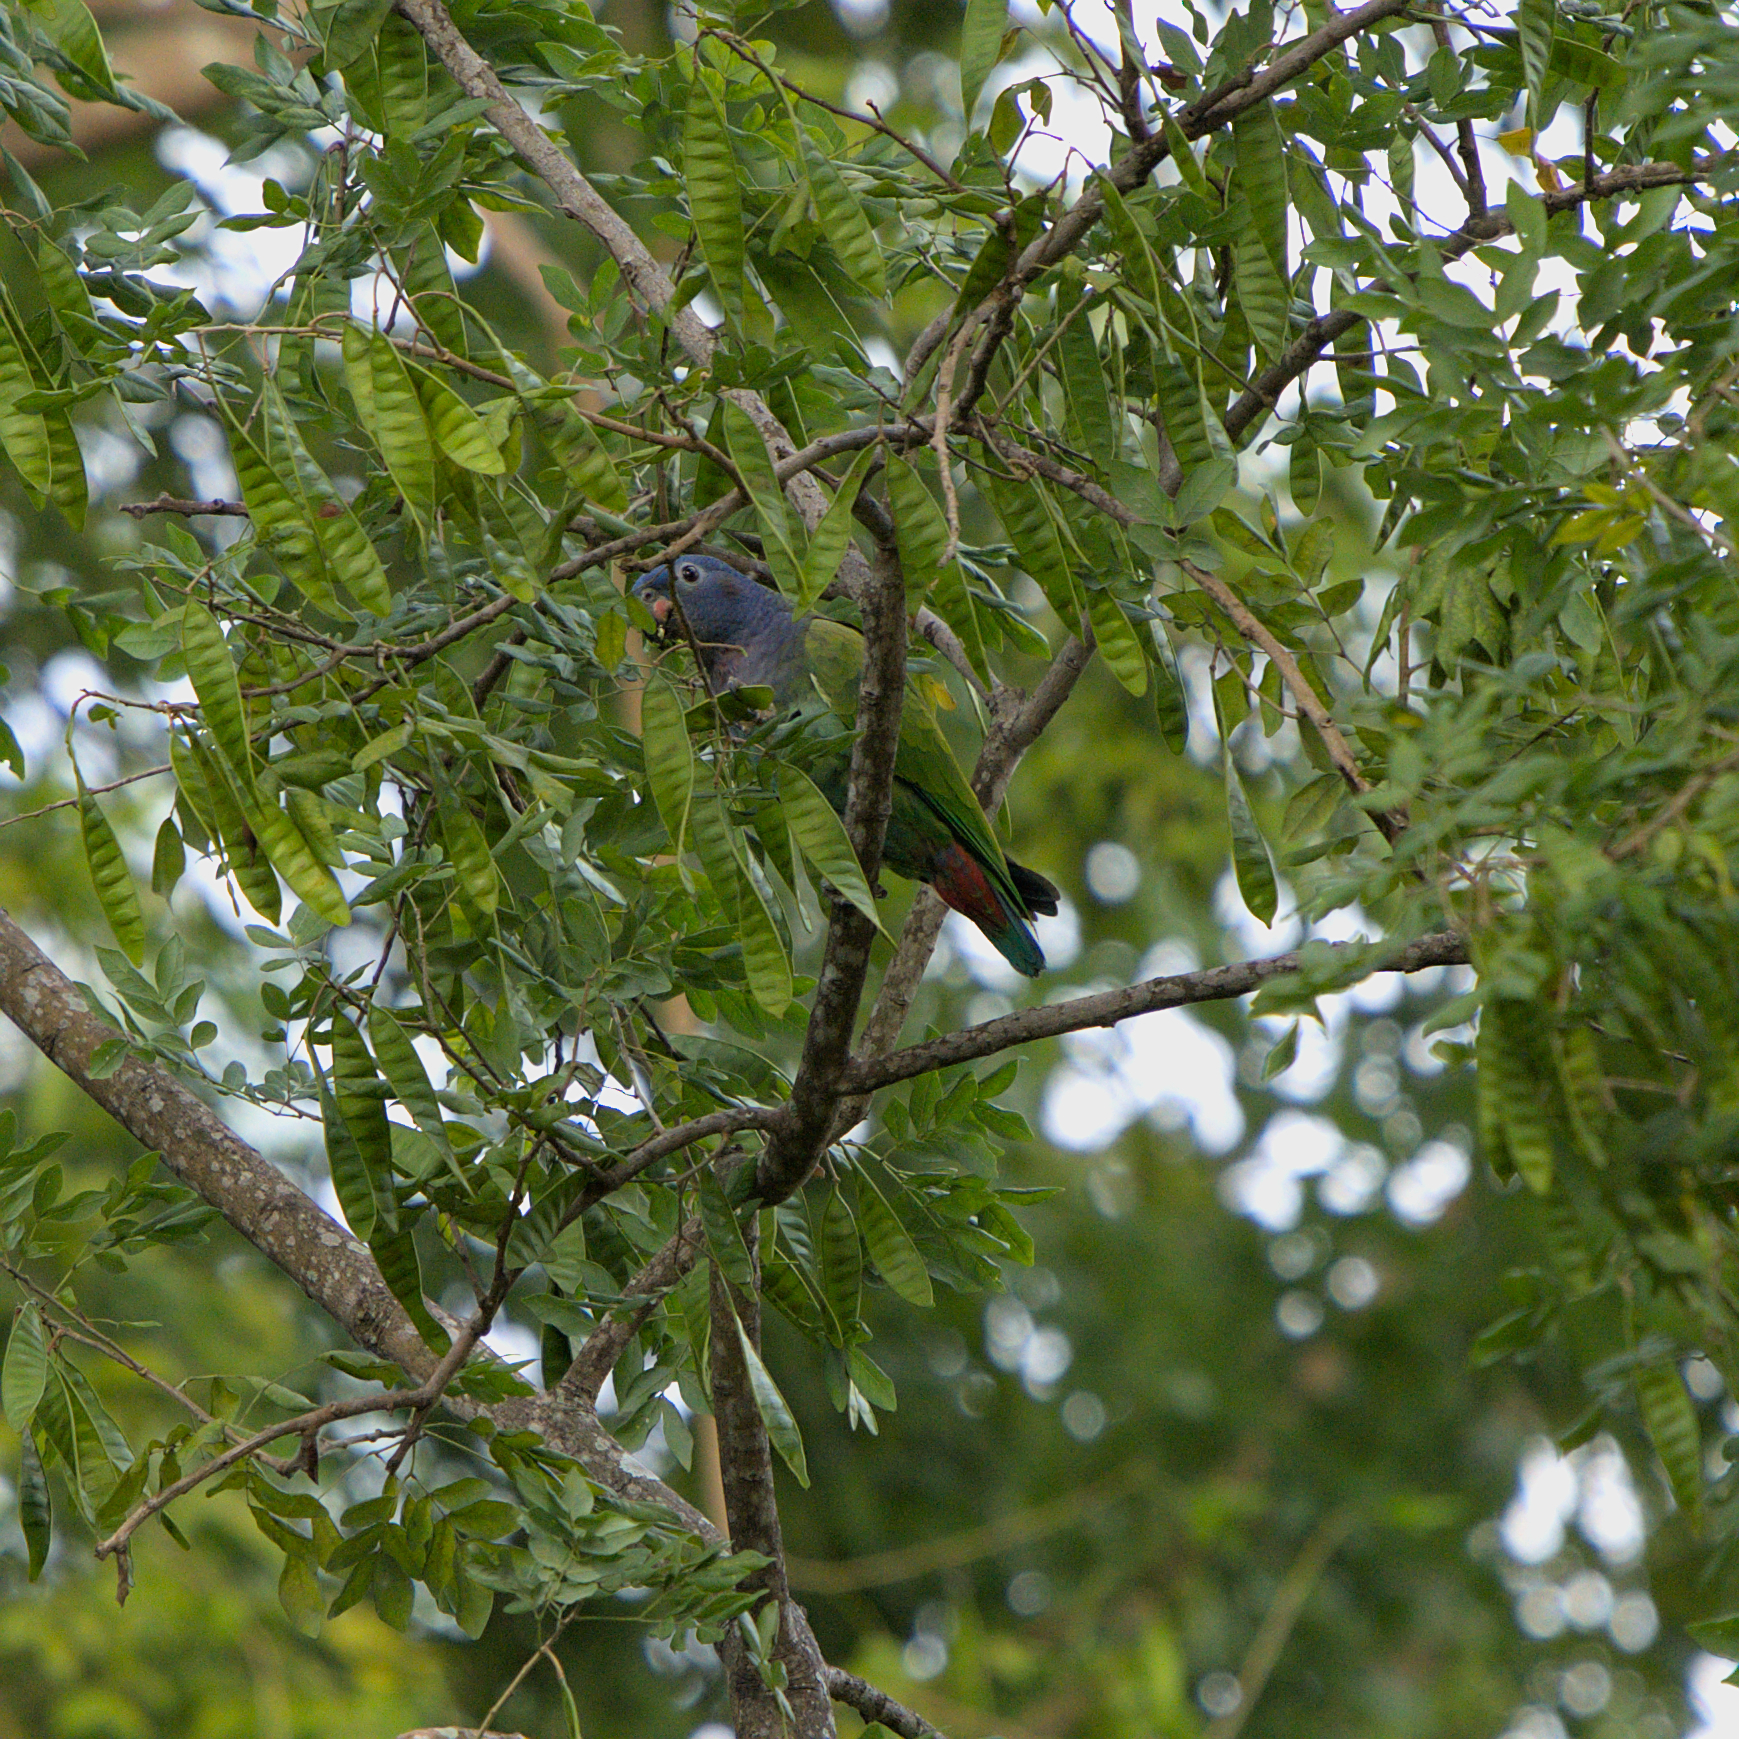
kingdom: Animalia
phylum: Chordata
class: Aves
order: Psittaciformes
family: Psittacidae
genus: Pionus
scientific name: Pionus menstruus
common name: Blue-headed parrot
